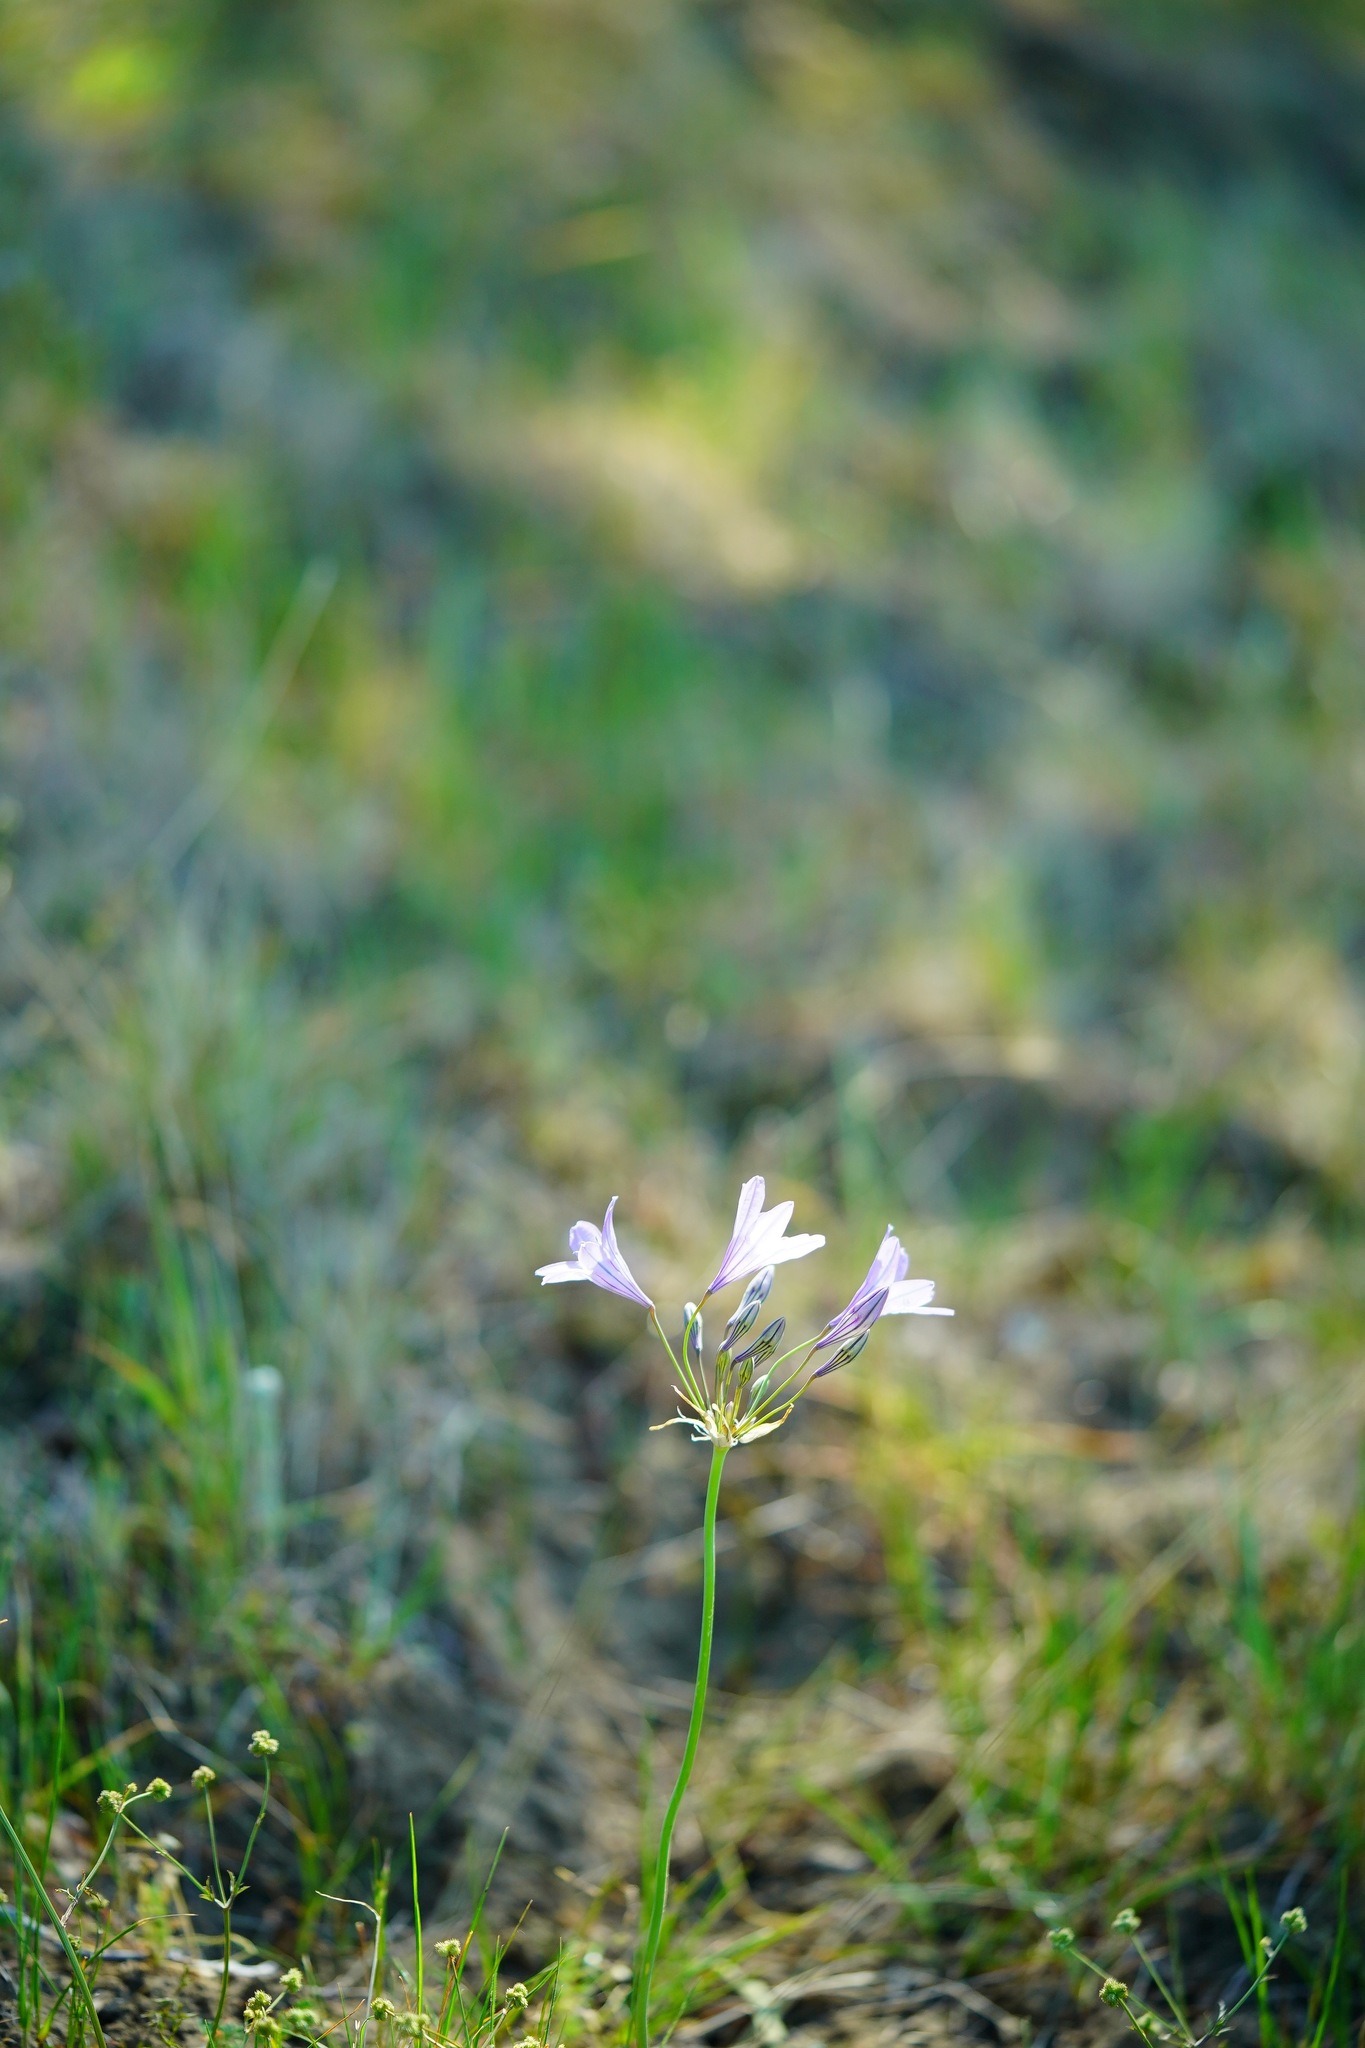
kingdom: Plantae
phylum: Tracheophyta
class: Liliopsida
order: Asparagales
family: Asparagaceae
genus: Triteleia
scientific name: Triteleia laxa
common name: Triplet-lily
